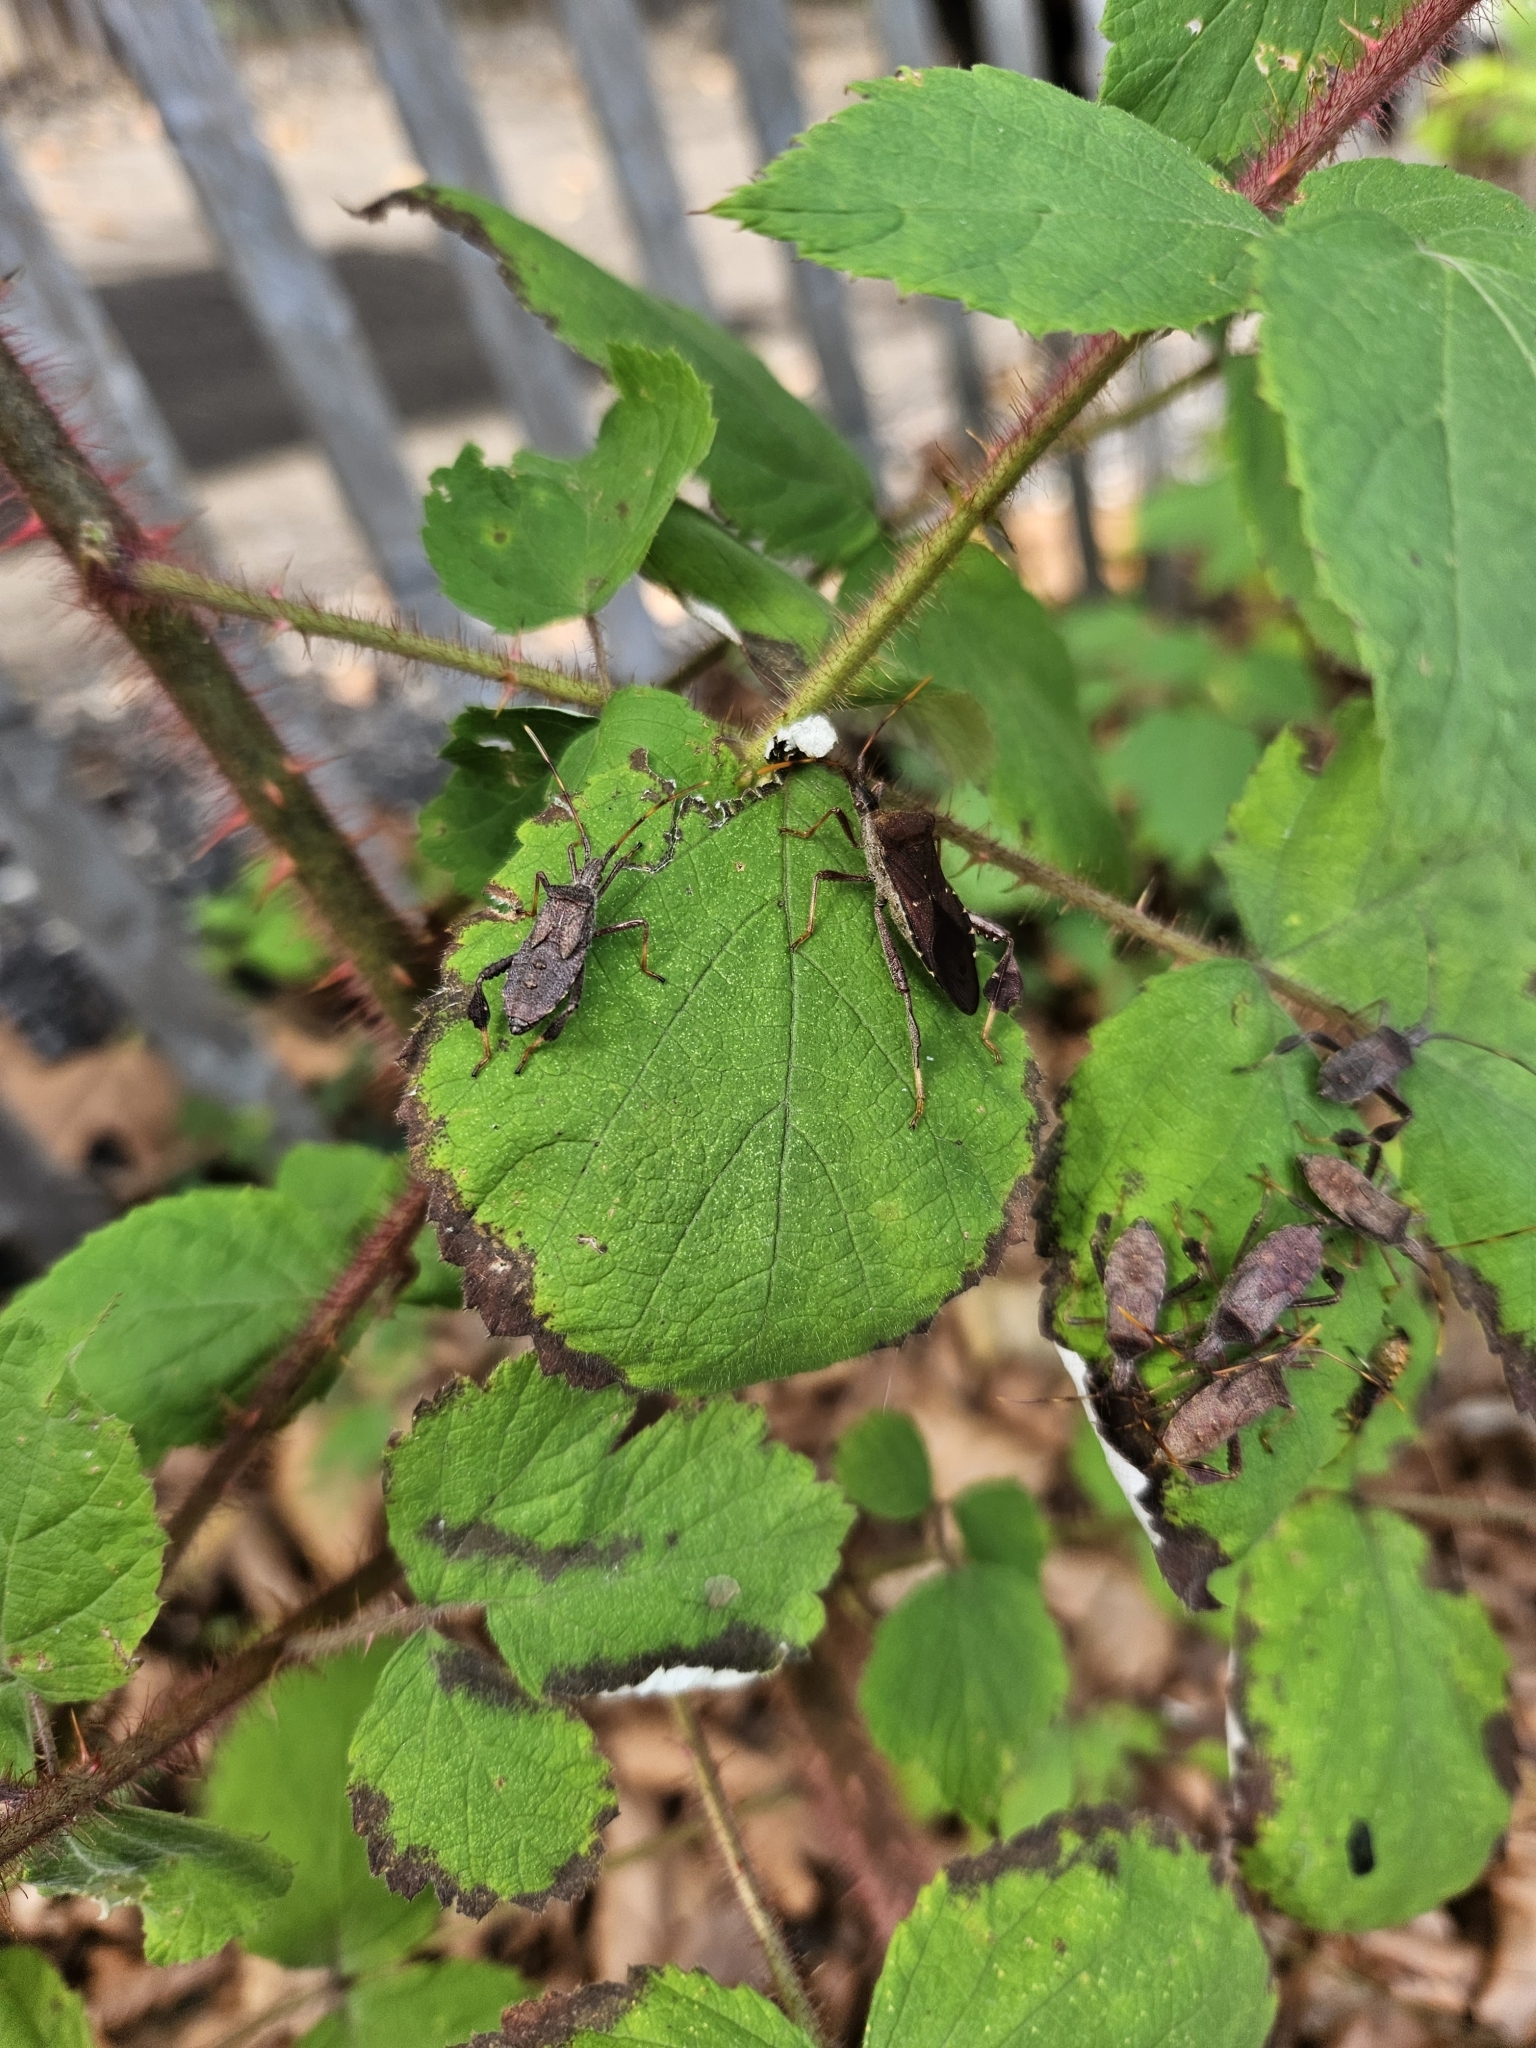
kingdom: Animalia
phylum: Arthropoda
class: Insecta
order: Hemiptera
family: Coreidae
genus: Leptoglossus
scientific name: Leptoglossus oppositus
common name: Northern leaf-footed bug
